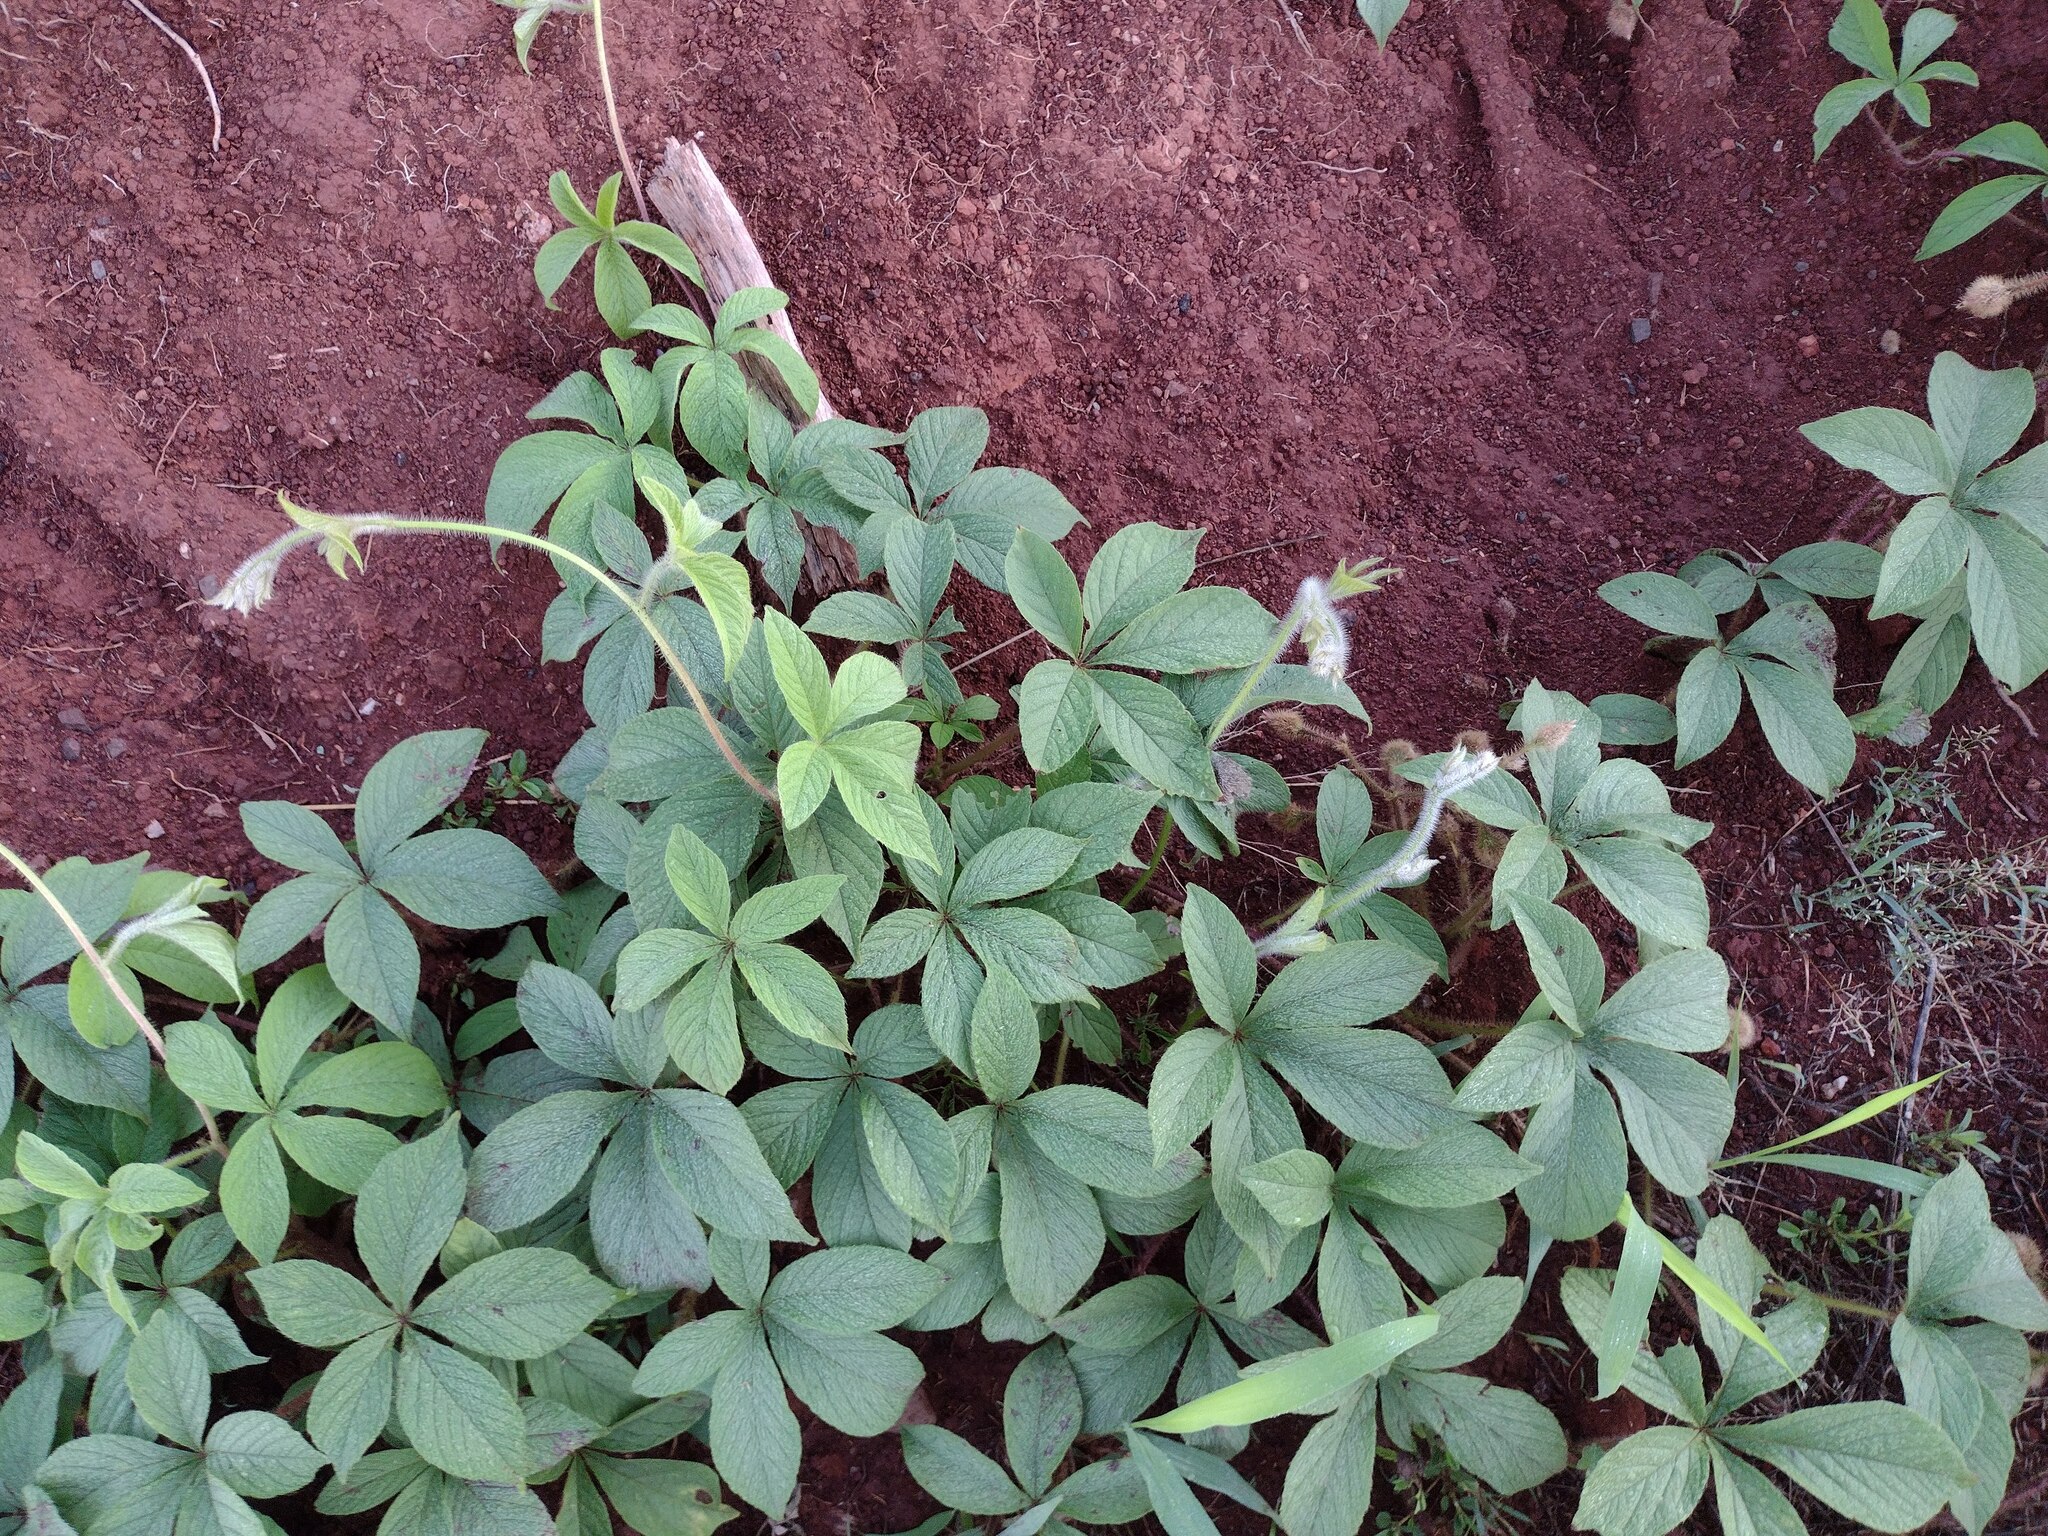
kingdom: Plantae
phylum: Tracheophyta
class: Magnoliopsida
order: Solanales
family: Convolvulaceae
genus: Distimake
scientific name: Distimake aegyptius
